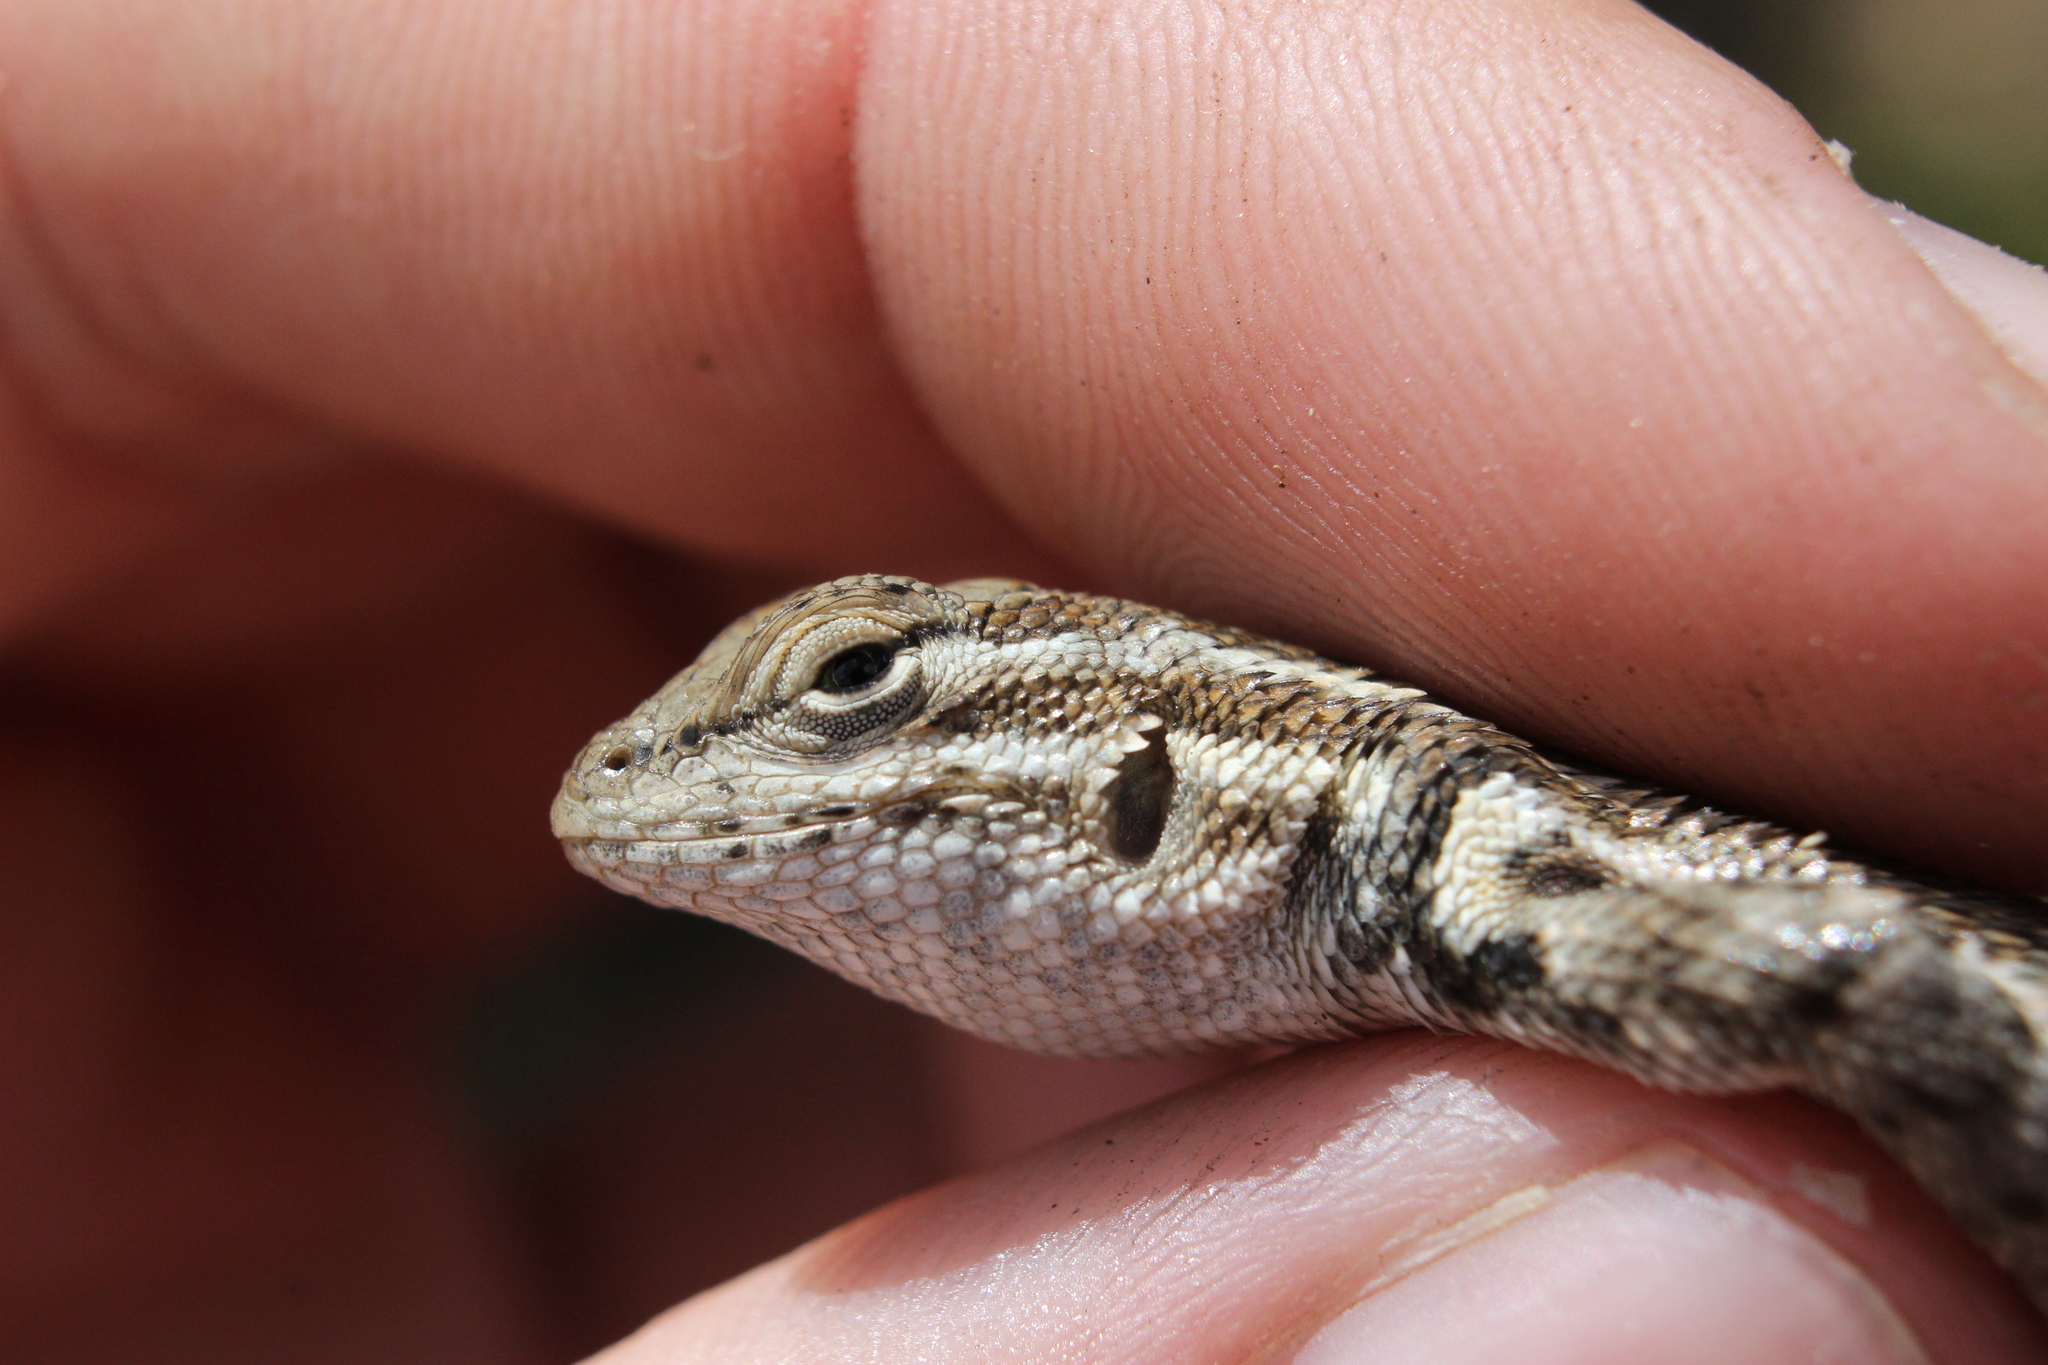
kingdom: Animalia
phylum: Chordata
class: Squamata
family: Phrynosomatidae
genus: Sceloporus
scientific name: Sceloporus graciosus
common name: Sagebrush lizard
